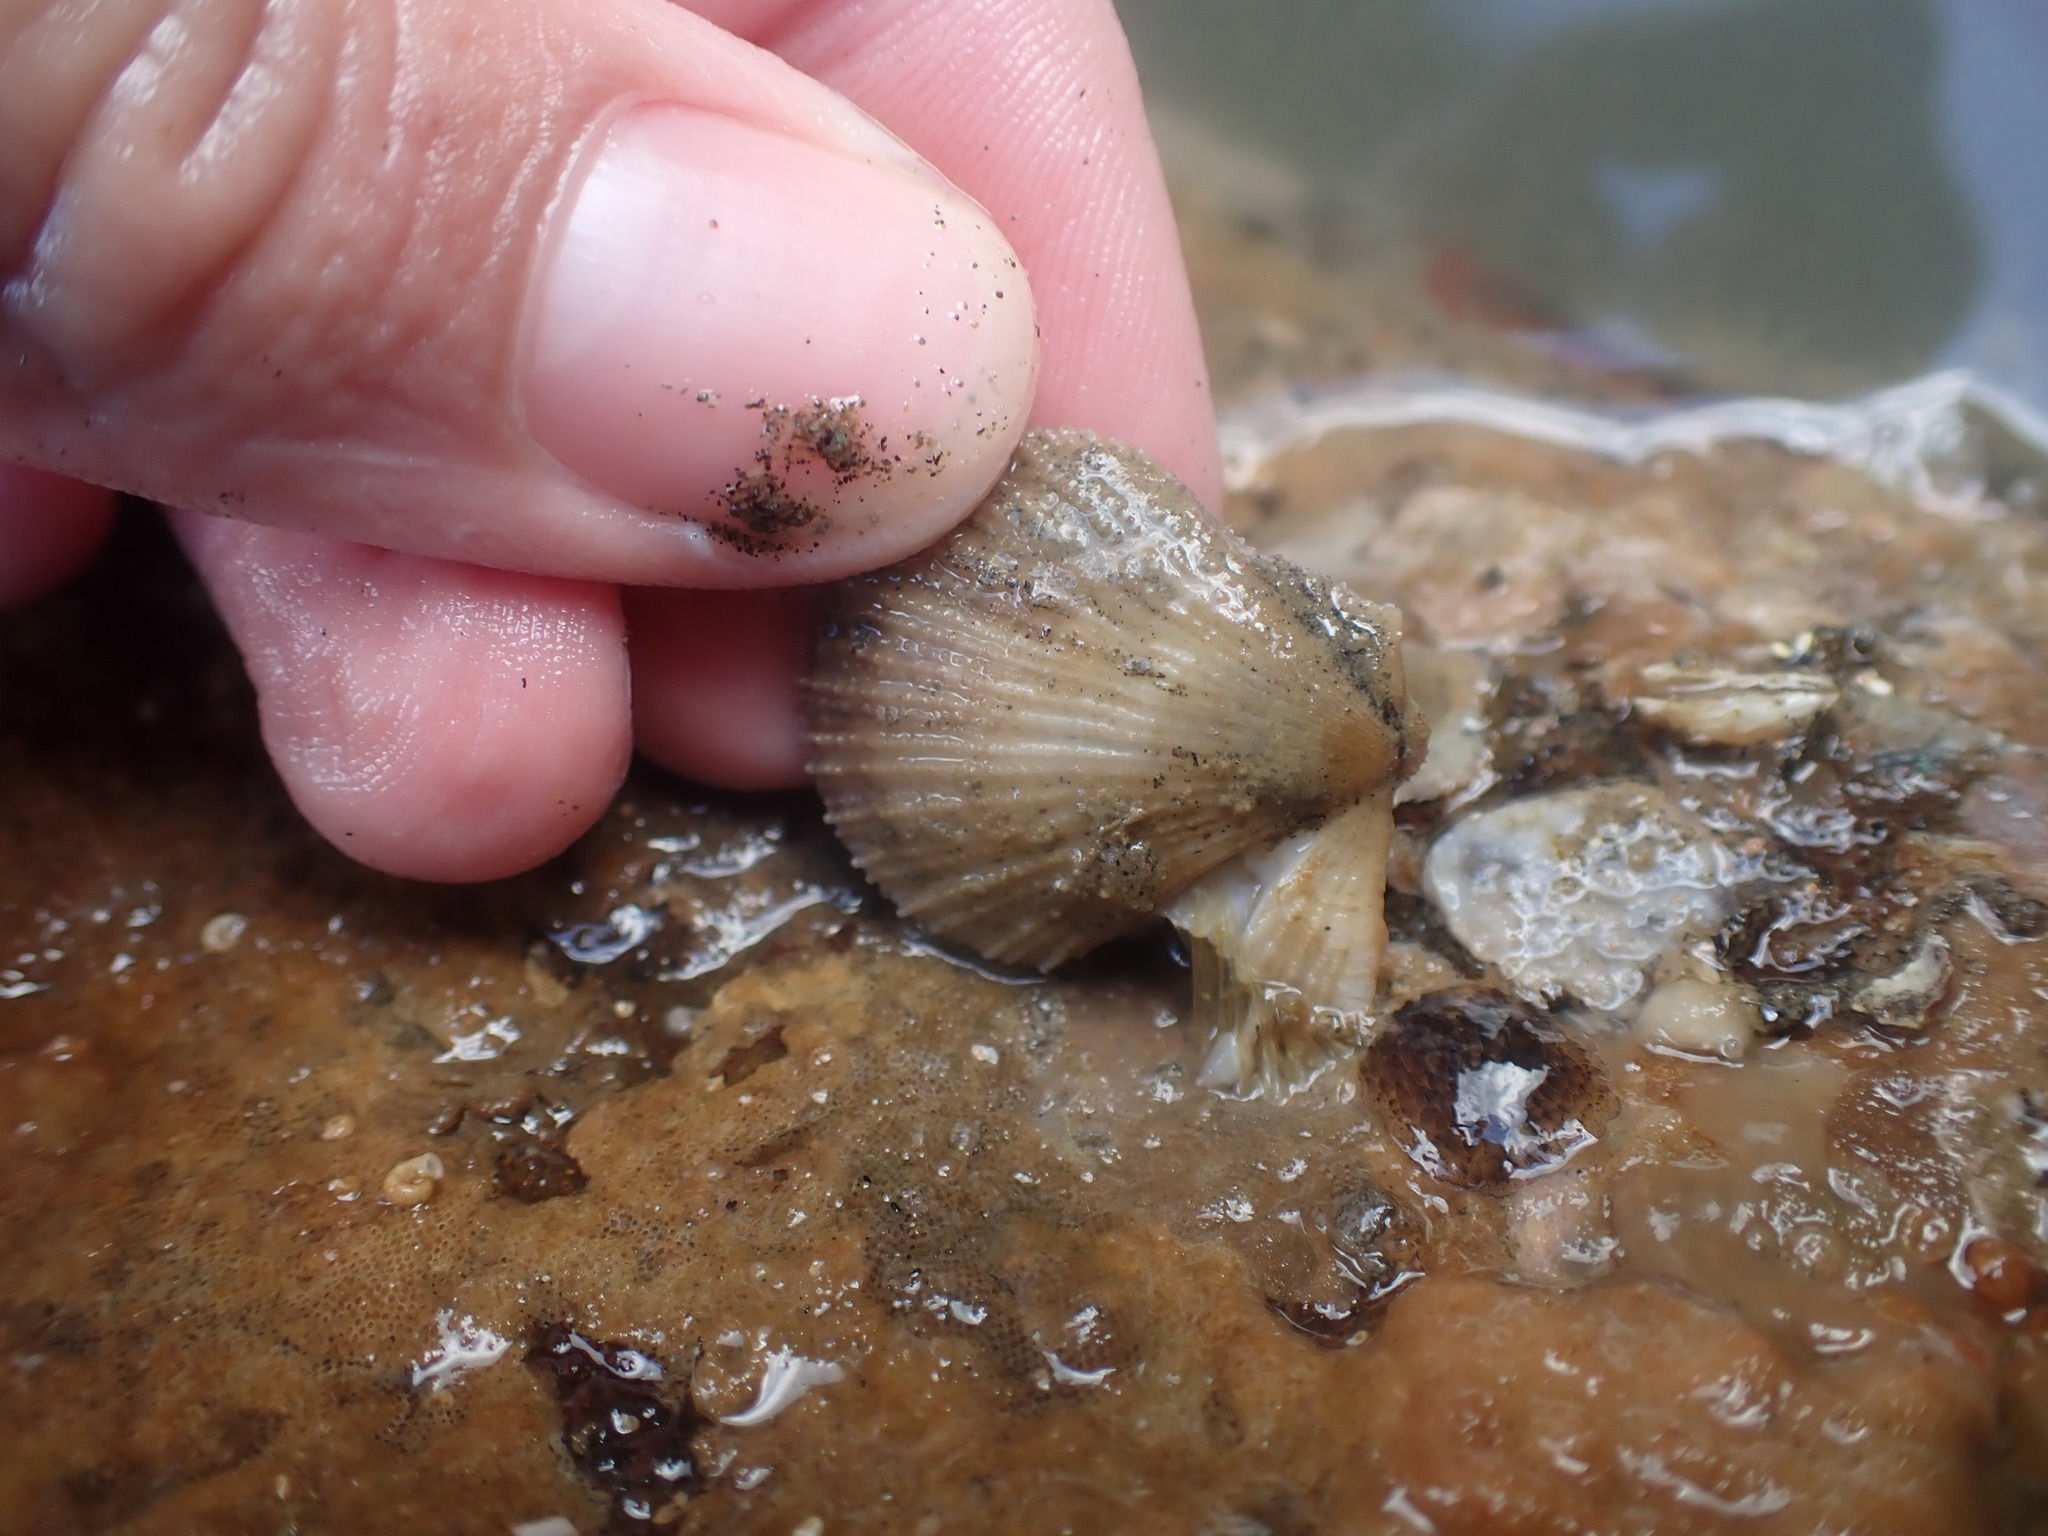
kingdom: Animalia
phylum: Mollusca
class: Bivalvia
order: Pectinida
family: Pectinidae
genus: Talochlamys
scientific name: Talochlamys zelandiae
